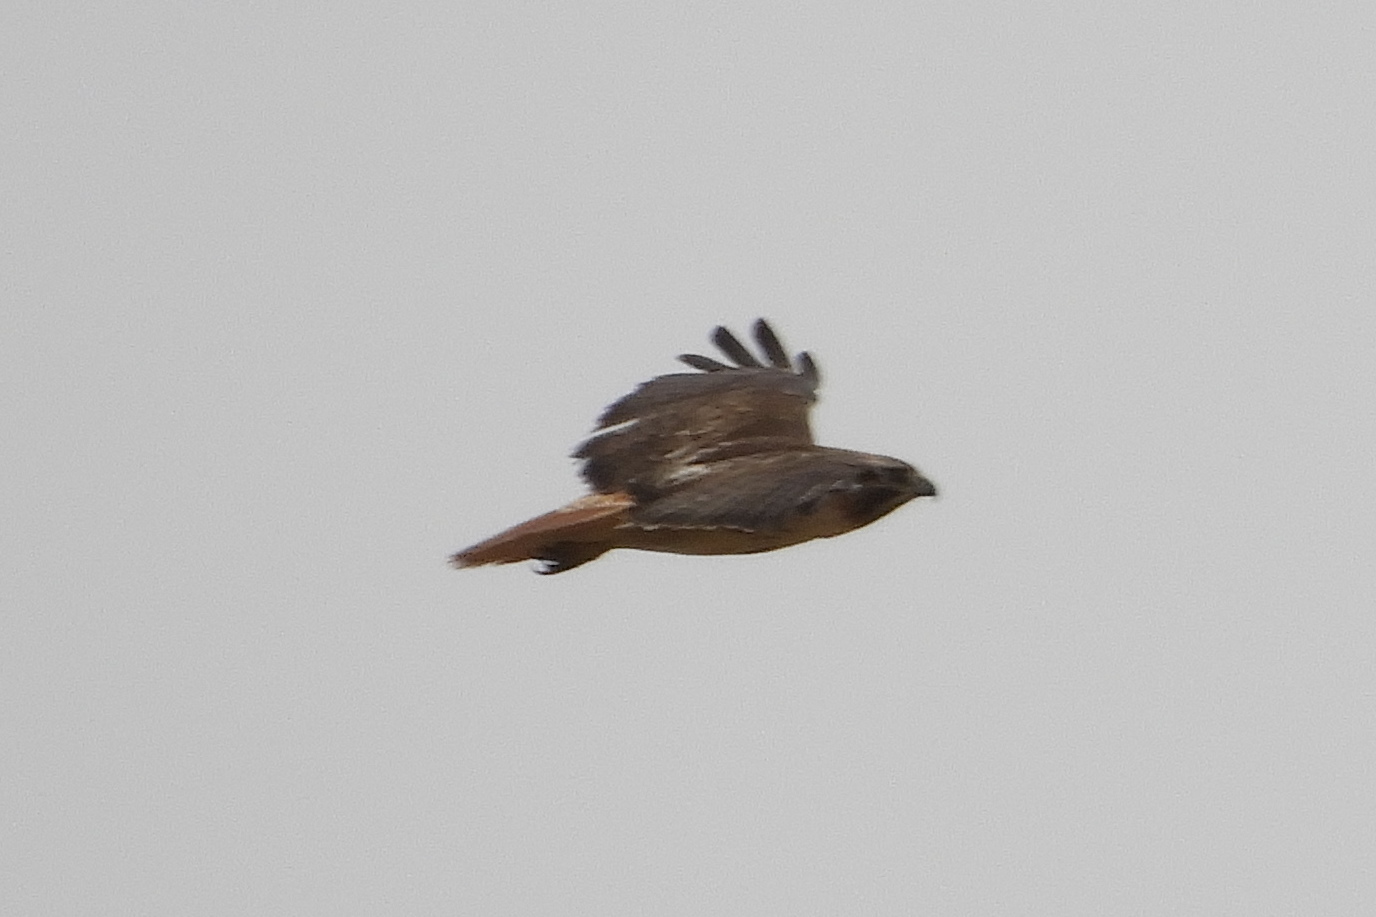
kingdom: Animalia
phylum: Chordata
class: Aves
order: Accipitriformes
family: Accipitridae
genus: Buteo
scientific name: Buteo jamaicensis
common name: Red-tailed hawk
